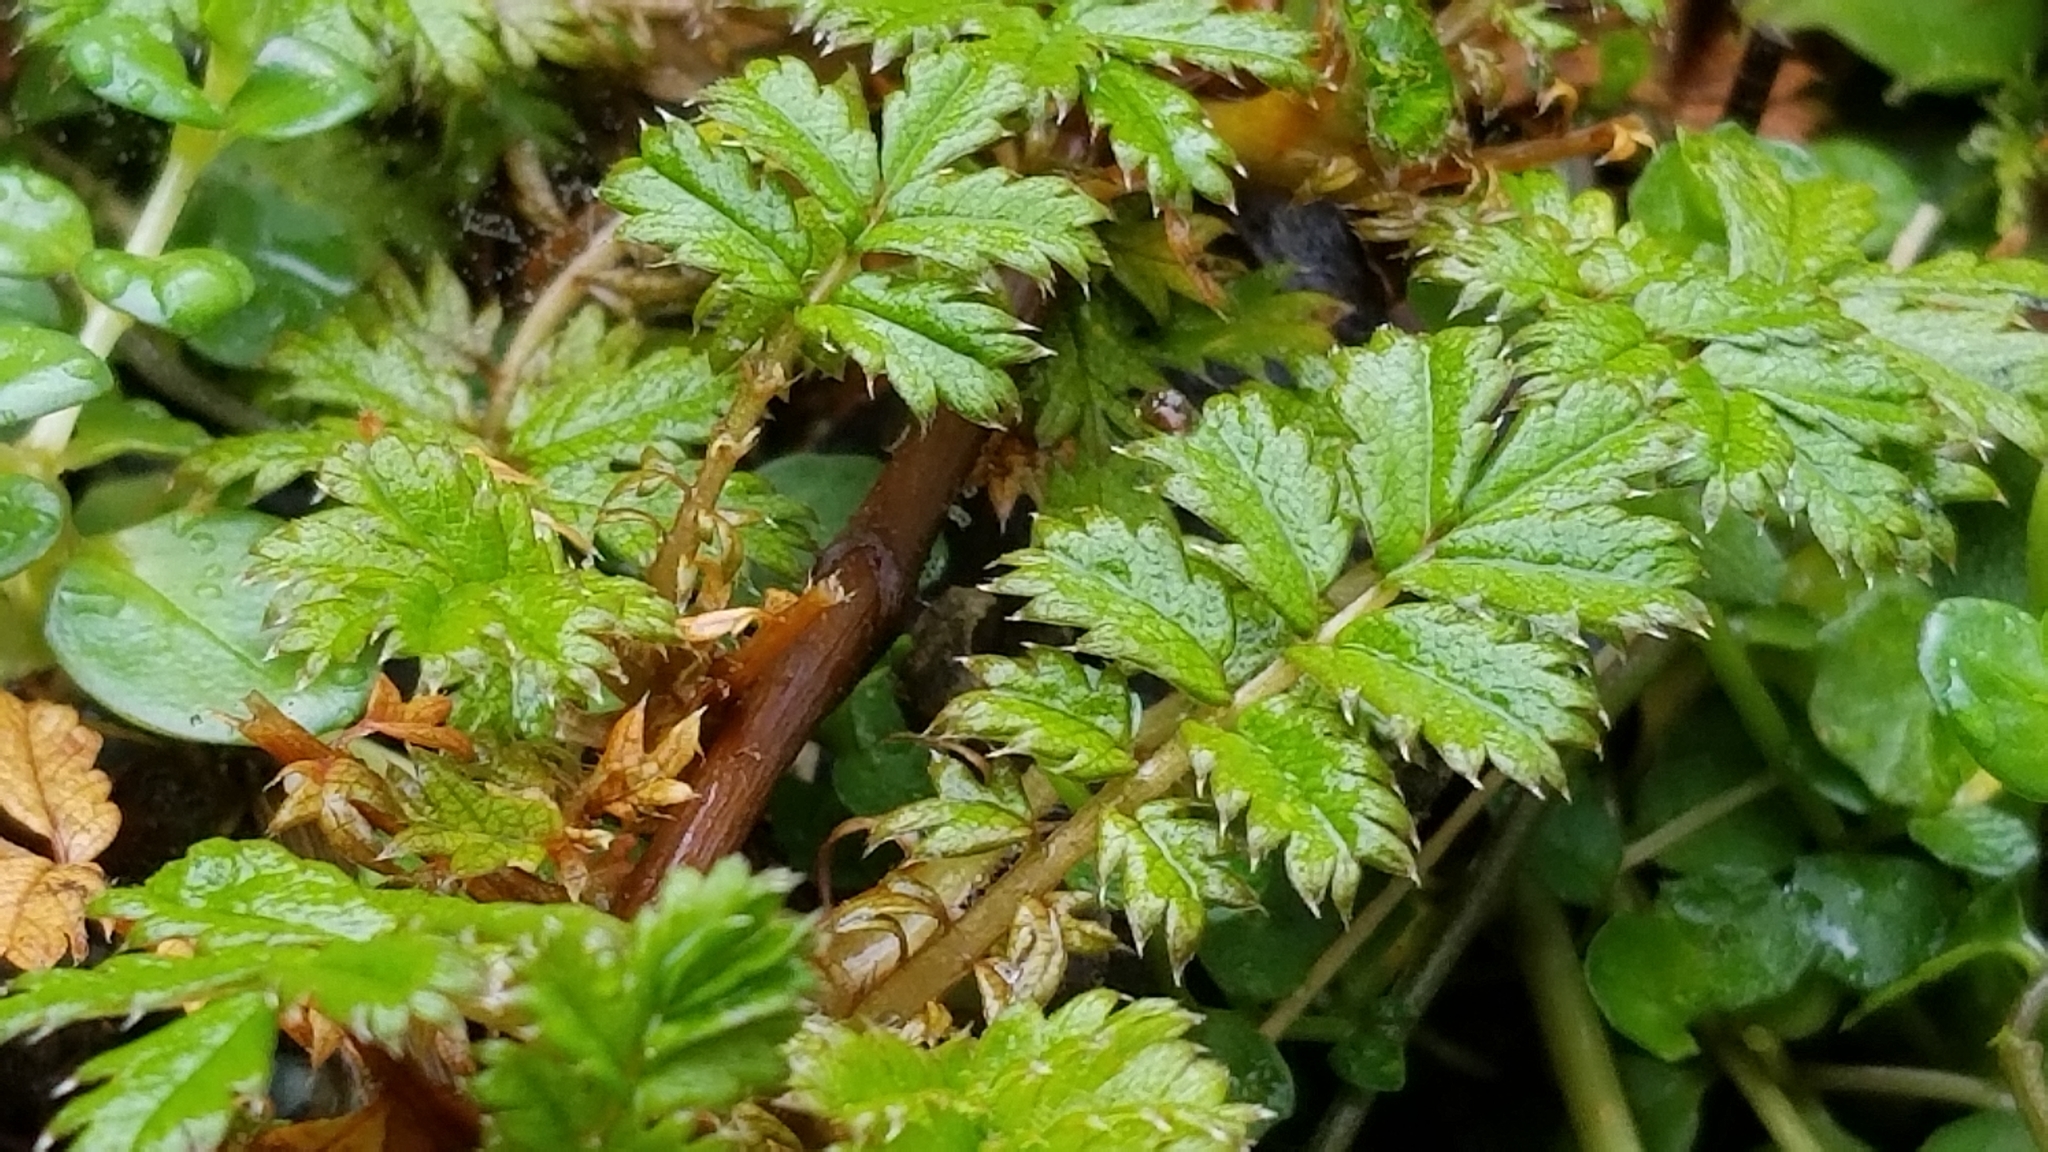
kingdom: Plantae
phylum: Tracheophyta
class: Magnoliopsida
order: Rosales
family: Rosaceae
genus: Acaena
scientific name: Acaena anserinifolia
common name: Bronze pirri-pirri-bur
